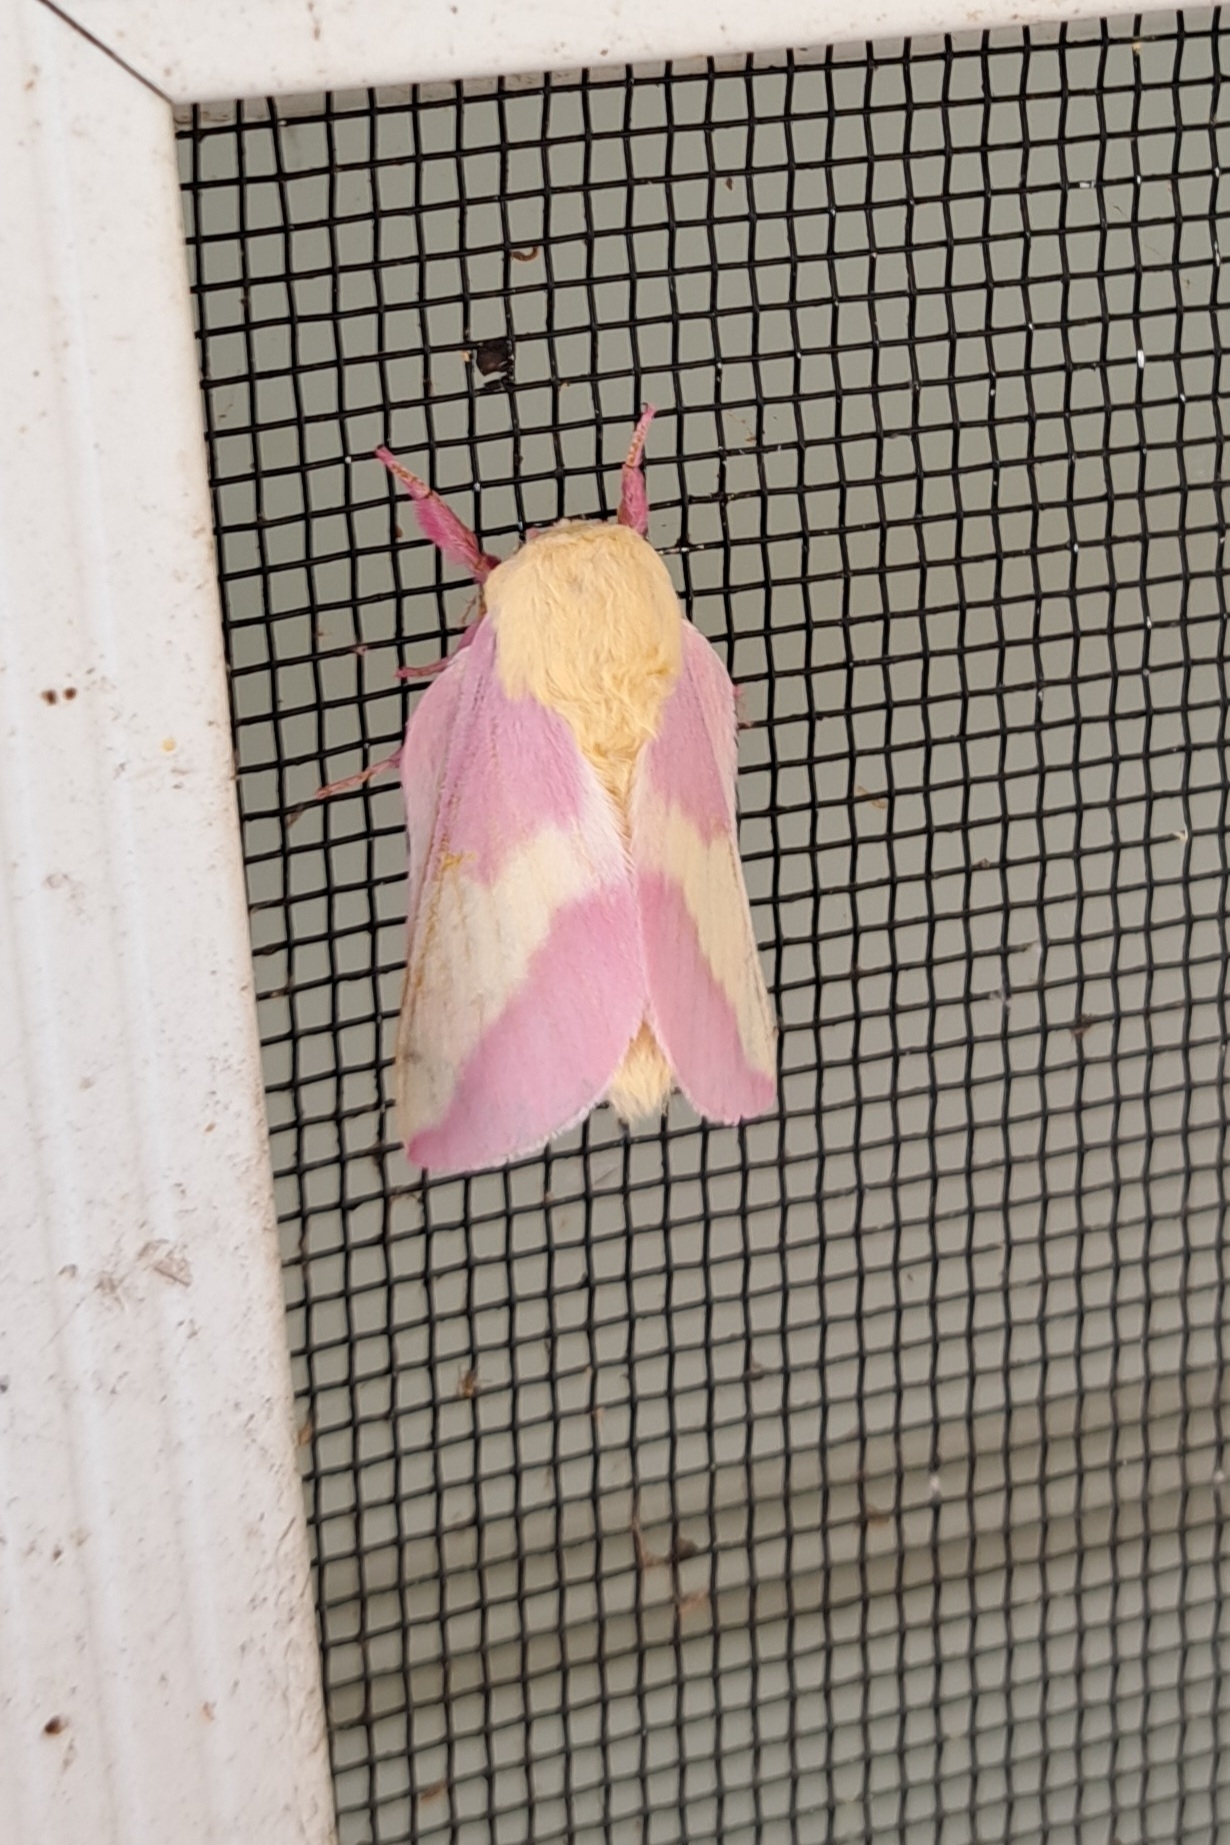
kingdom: Animalia
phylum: Arthropoda
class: Insecta
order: Lepidoptera
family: Saturniidae
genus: Dryocampa
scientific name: Dryocampa rubicunda
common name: Rosy maple moth
